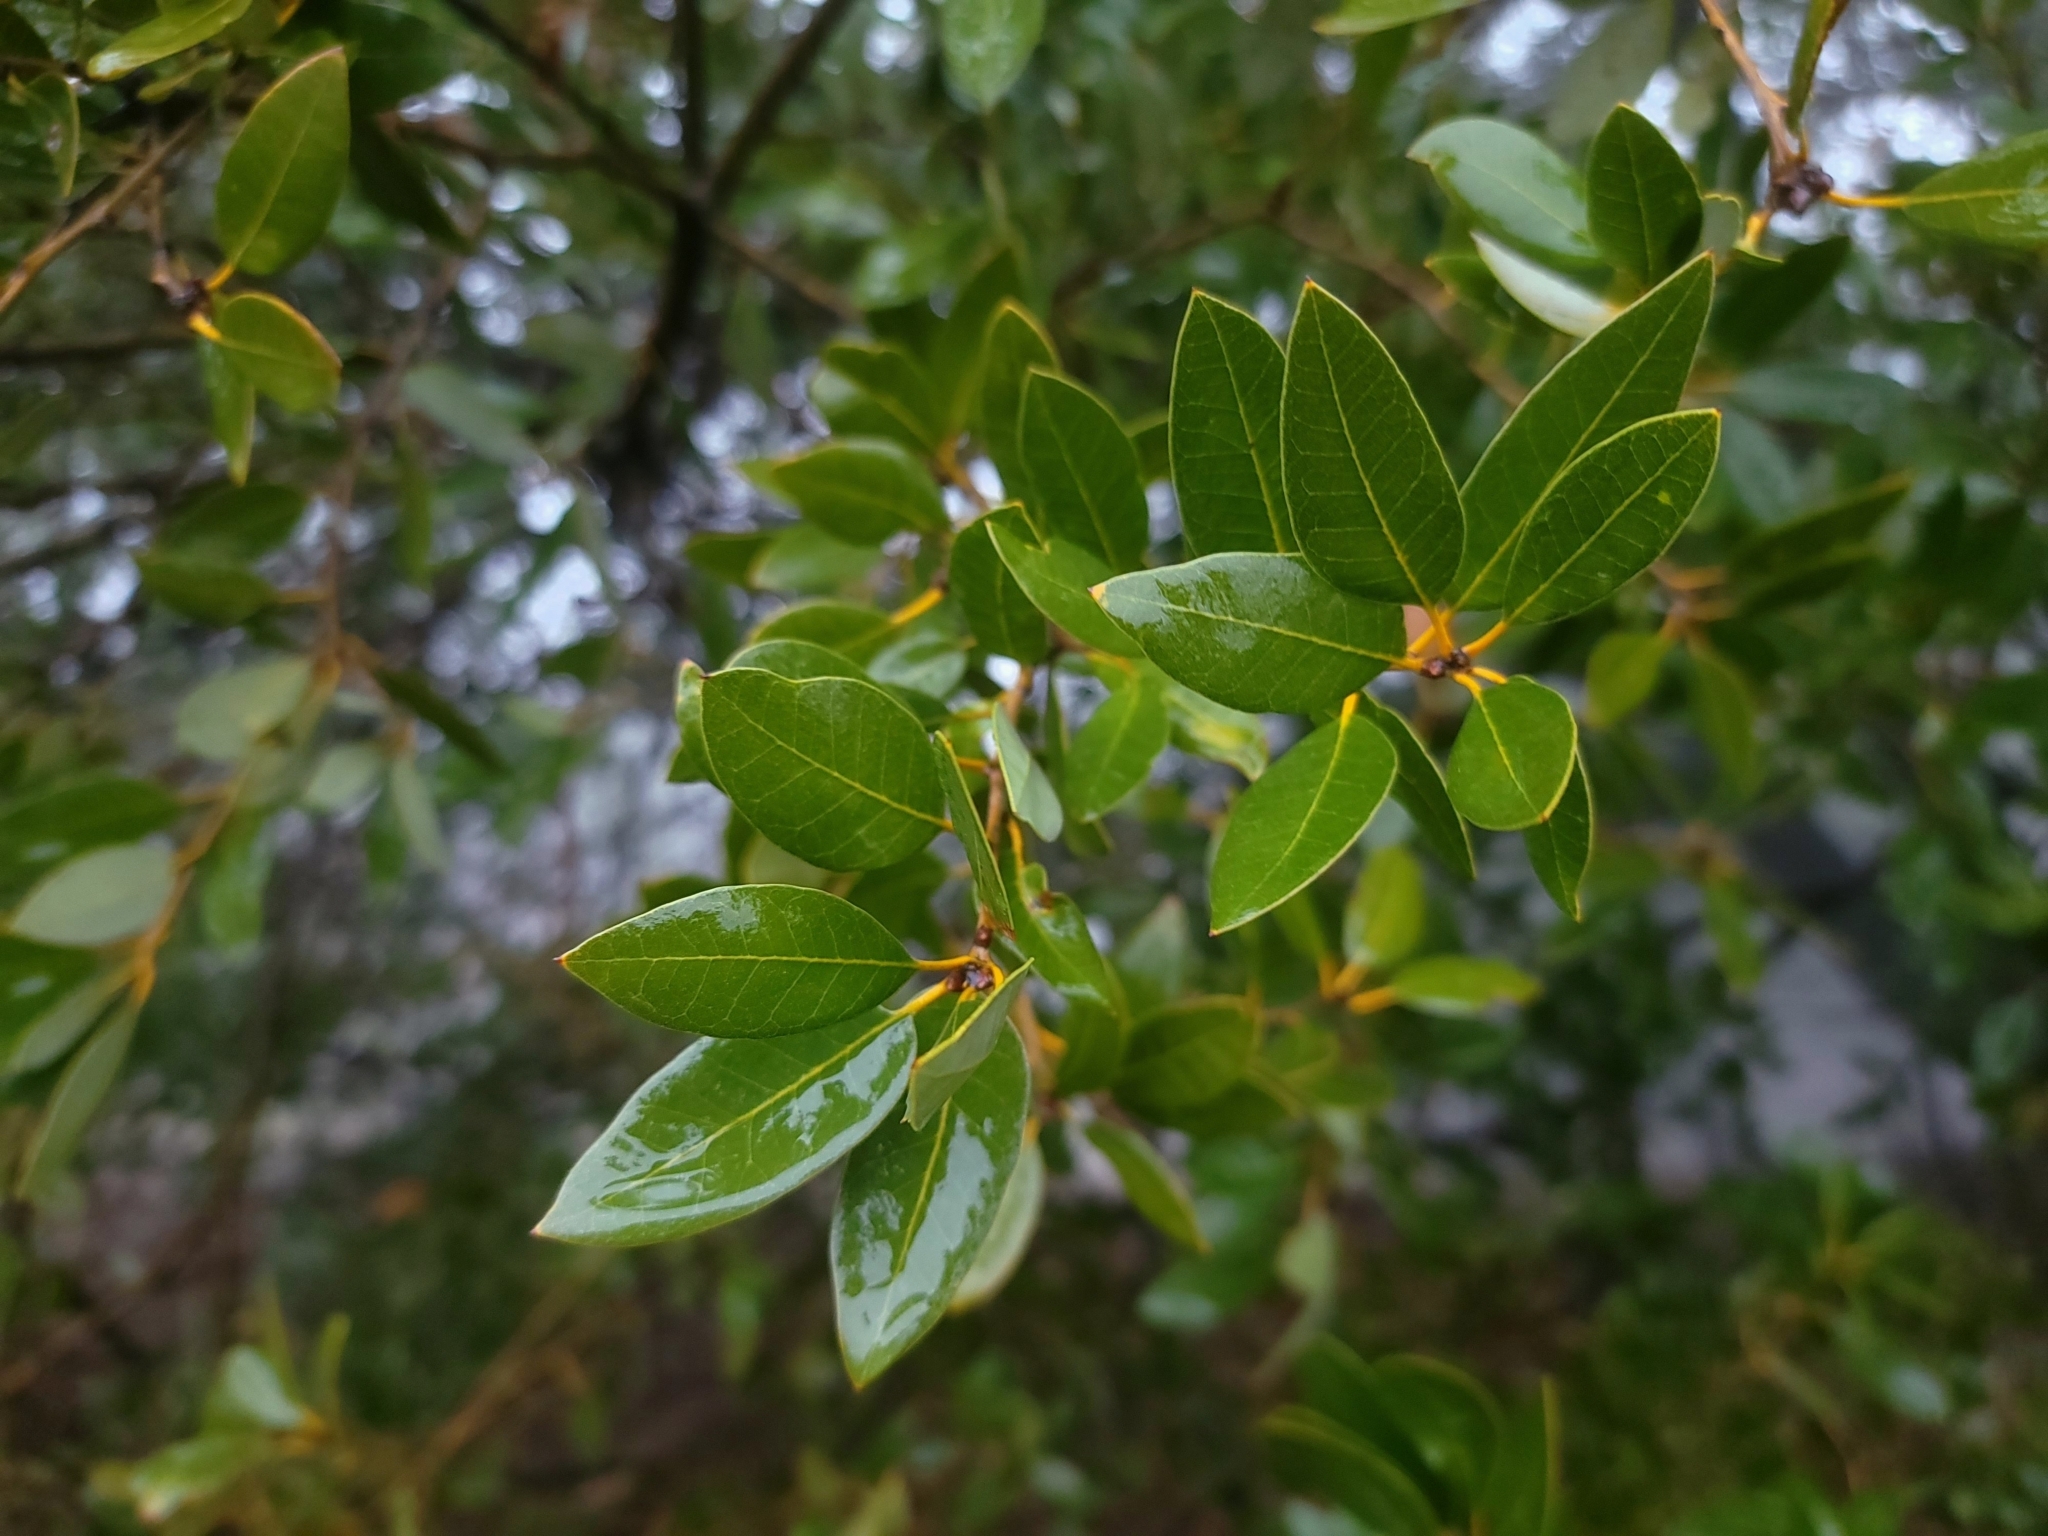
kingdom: Plantae
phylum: Tracheophyta
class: Magnoliopsida
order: Fagales
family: Fagaceae
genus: Quercus
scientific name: Quercus chrysolepis
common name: Canyon live oak
